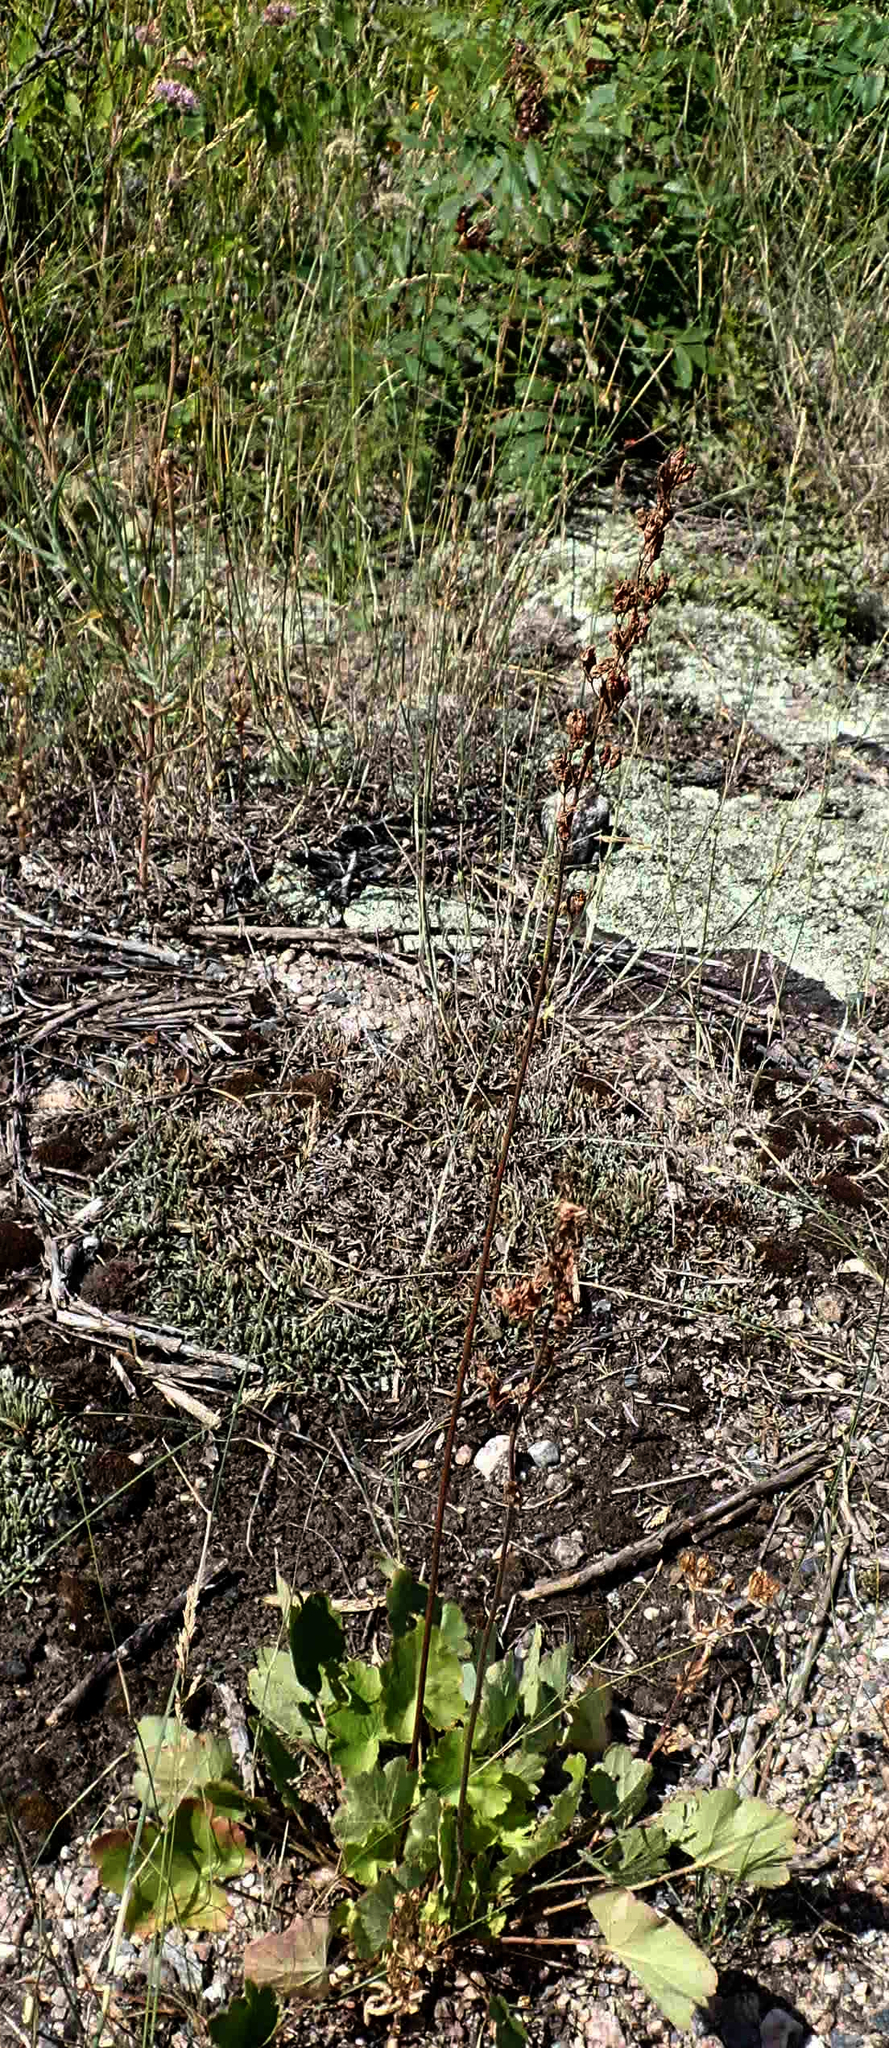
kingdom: Plantae
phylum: Tracheophyta
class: Magnoliopsida
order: Saxifragales
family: Saxifragaceae
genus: Heuchera
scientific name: Heuchera richardsonii
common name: Richardson's alumroot
